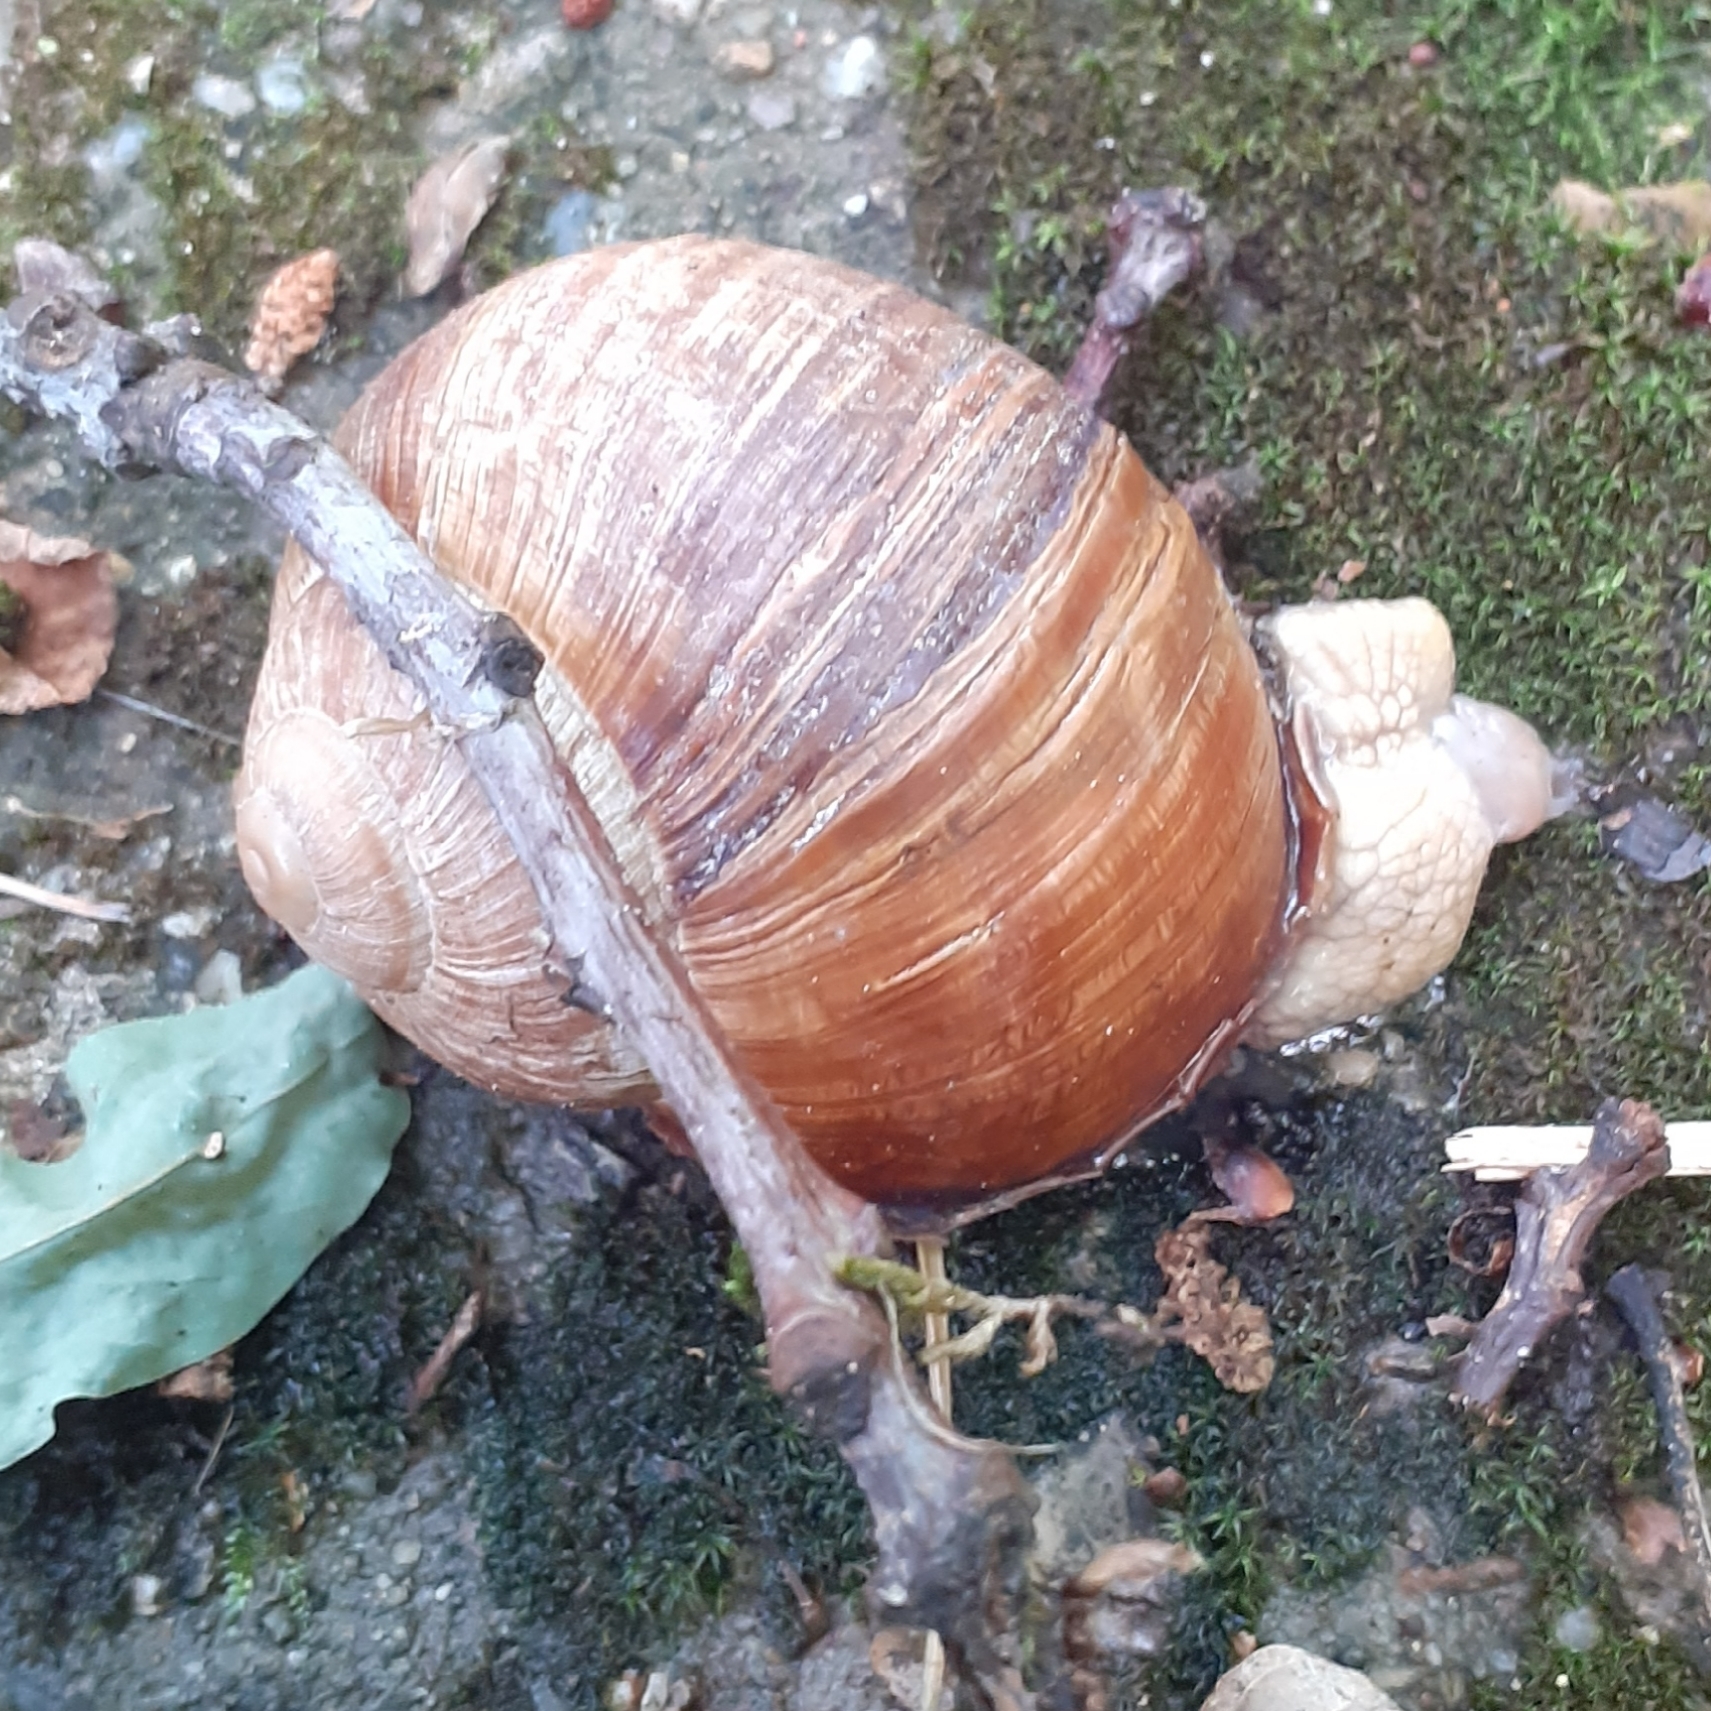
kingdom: Animalia
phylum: Mollusca
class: Gastropoda
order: Stylommatophora
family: Helicidae
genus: Helix
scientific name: Helix pomatia
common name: Roman snail
